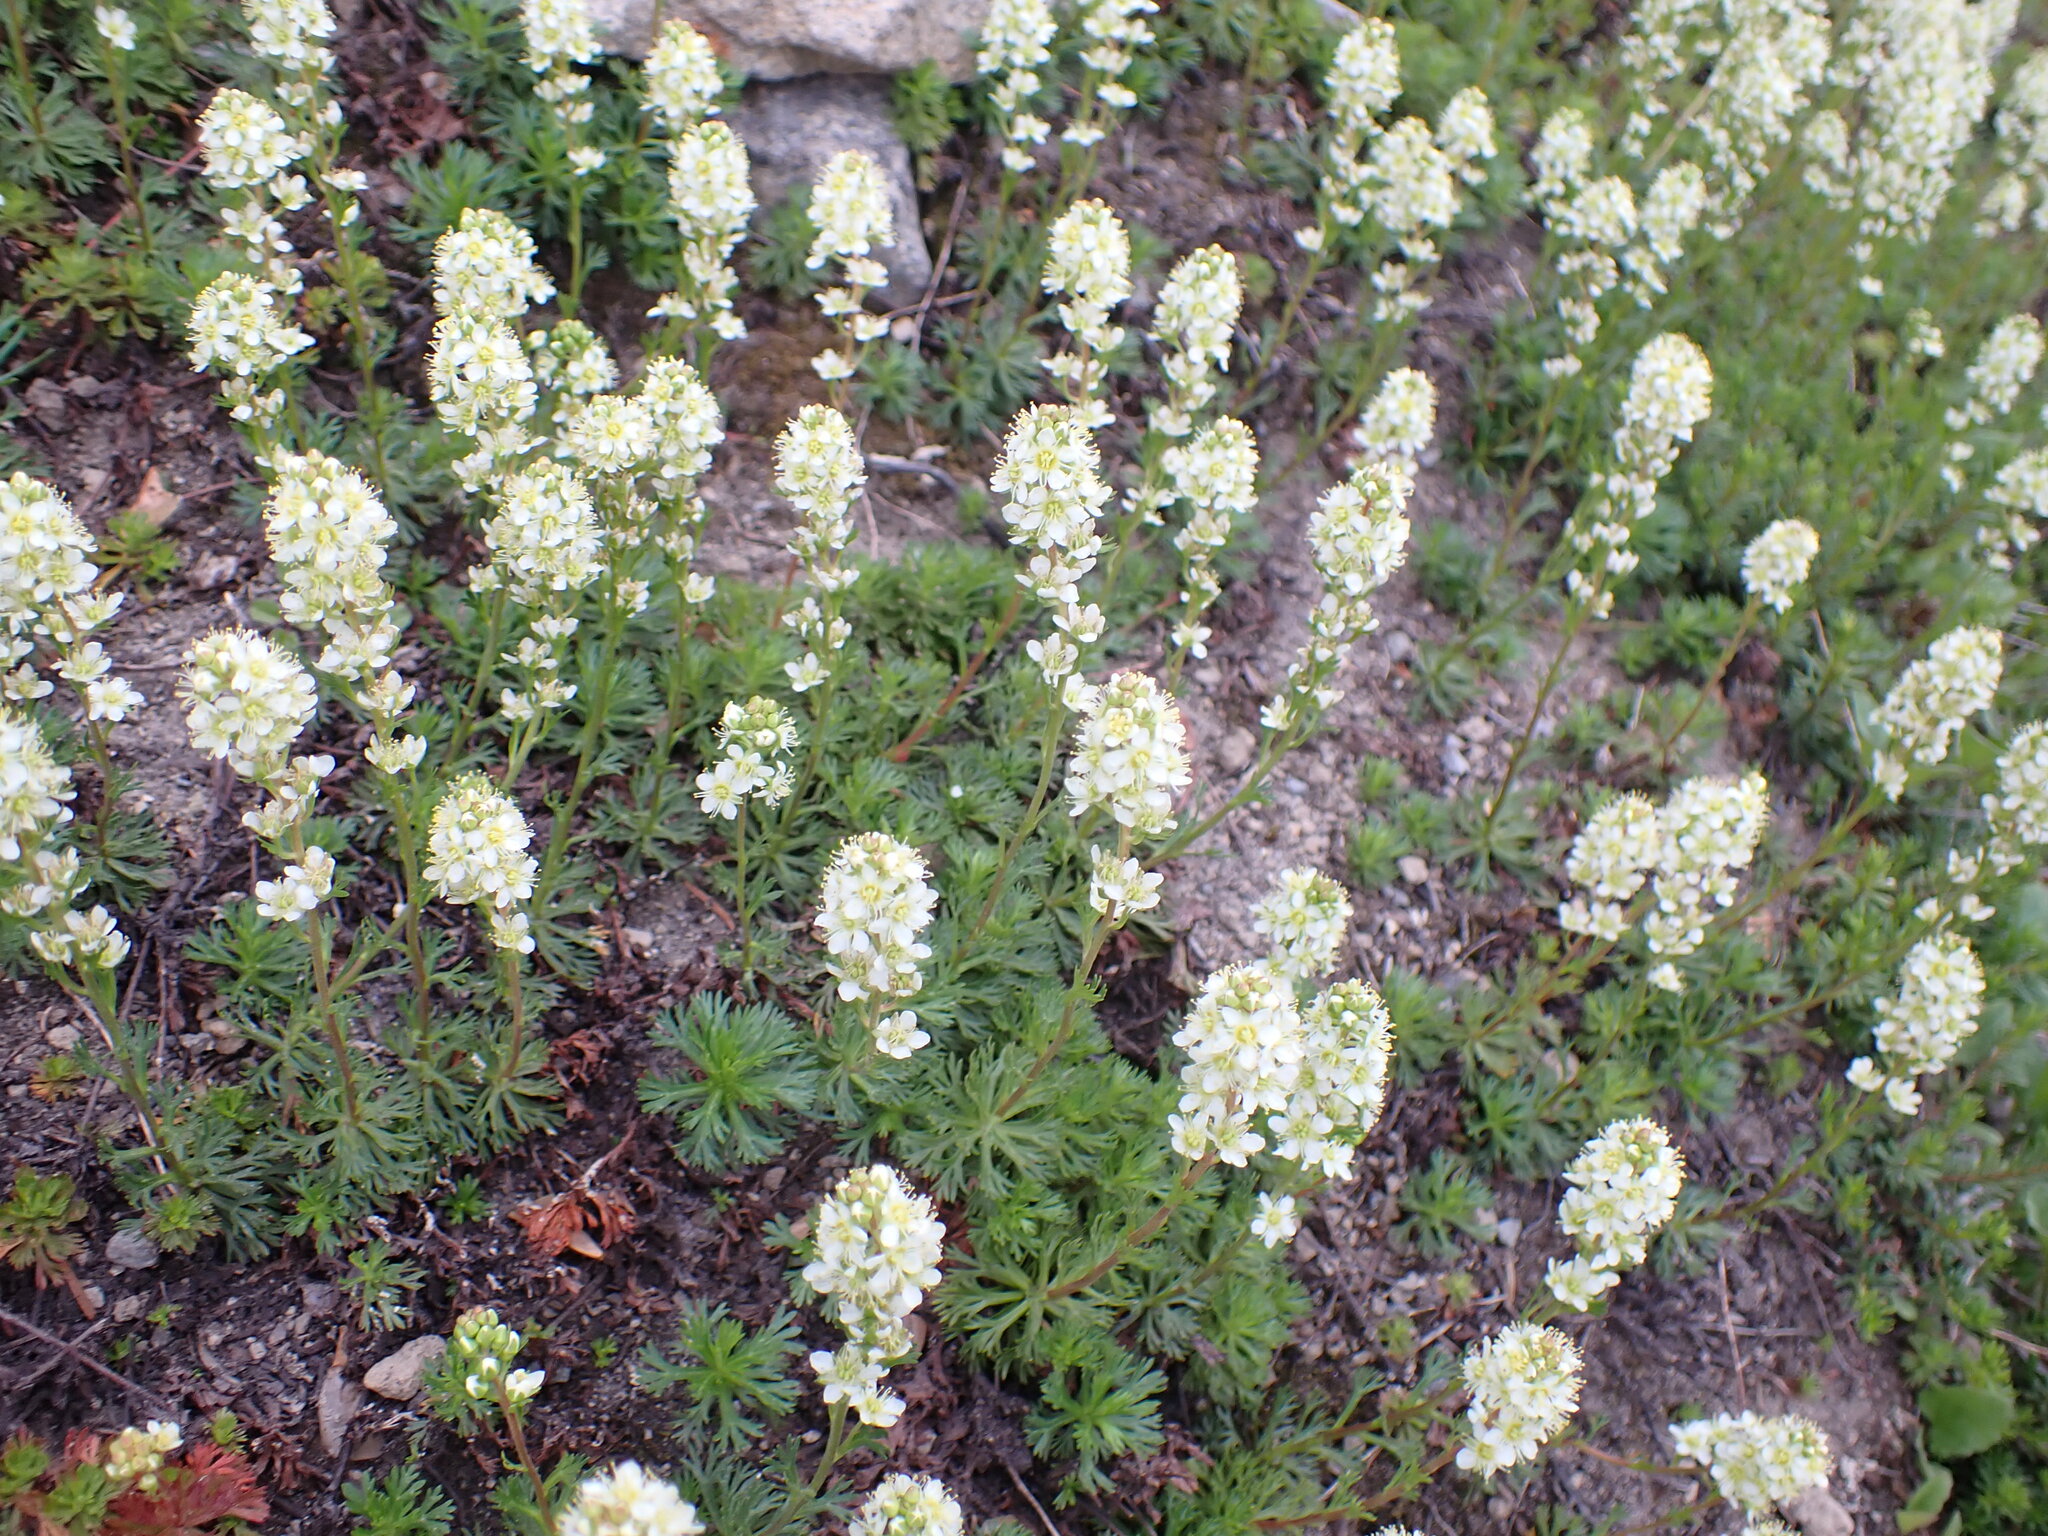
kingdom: Plantae
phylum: Tracheophyta
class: Magnoliopsida
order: Rosales
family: Rosaceae
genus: Luetkea
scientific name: Luetkea pectinata
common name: Partridgefoot
